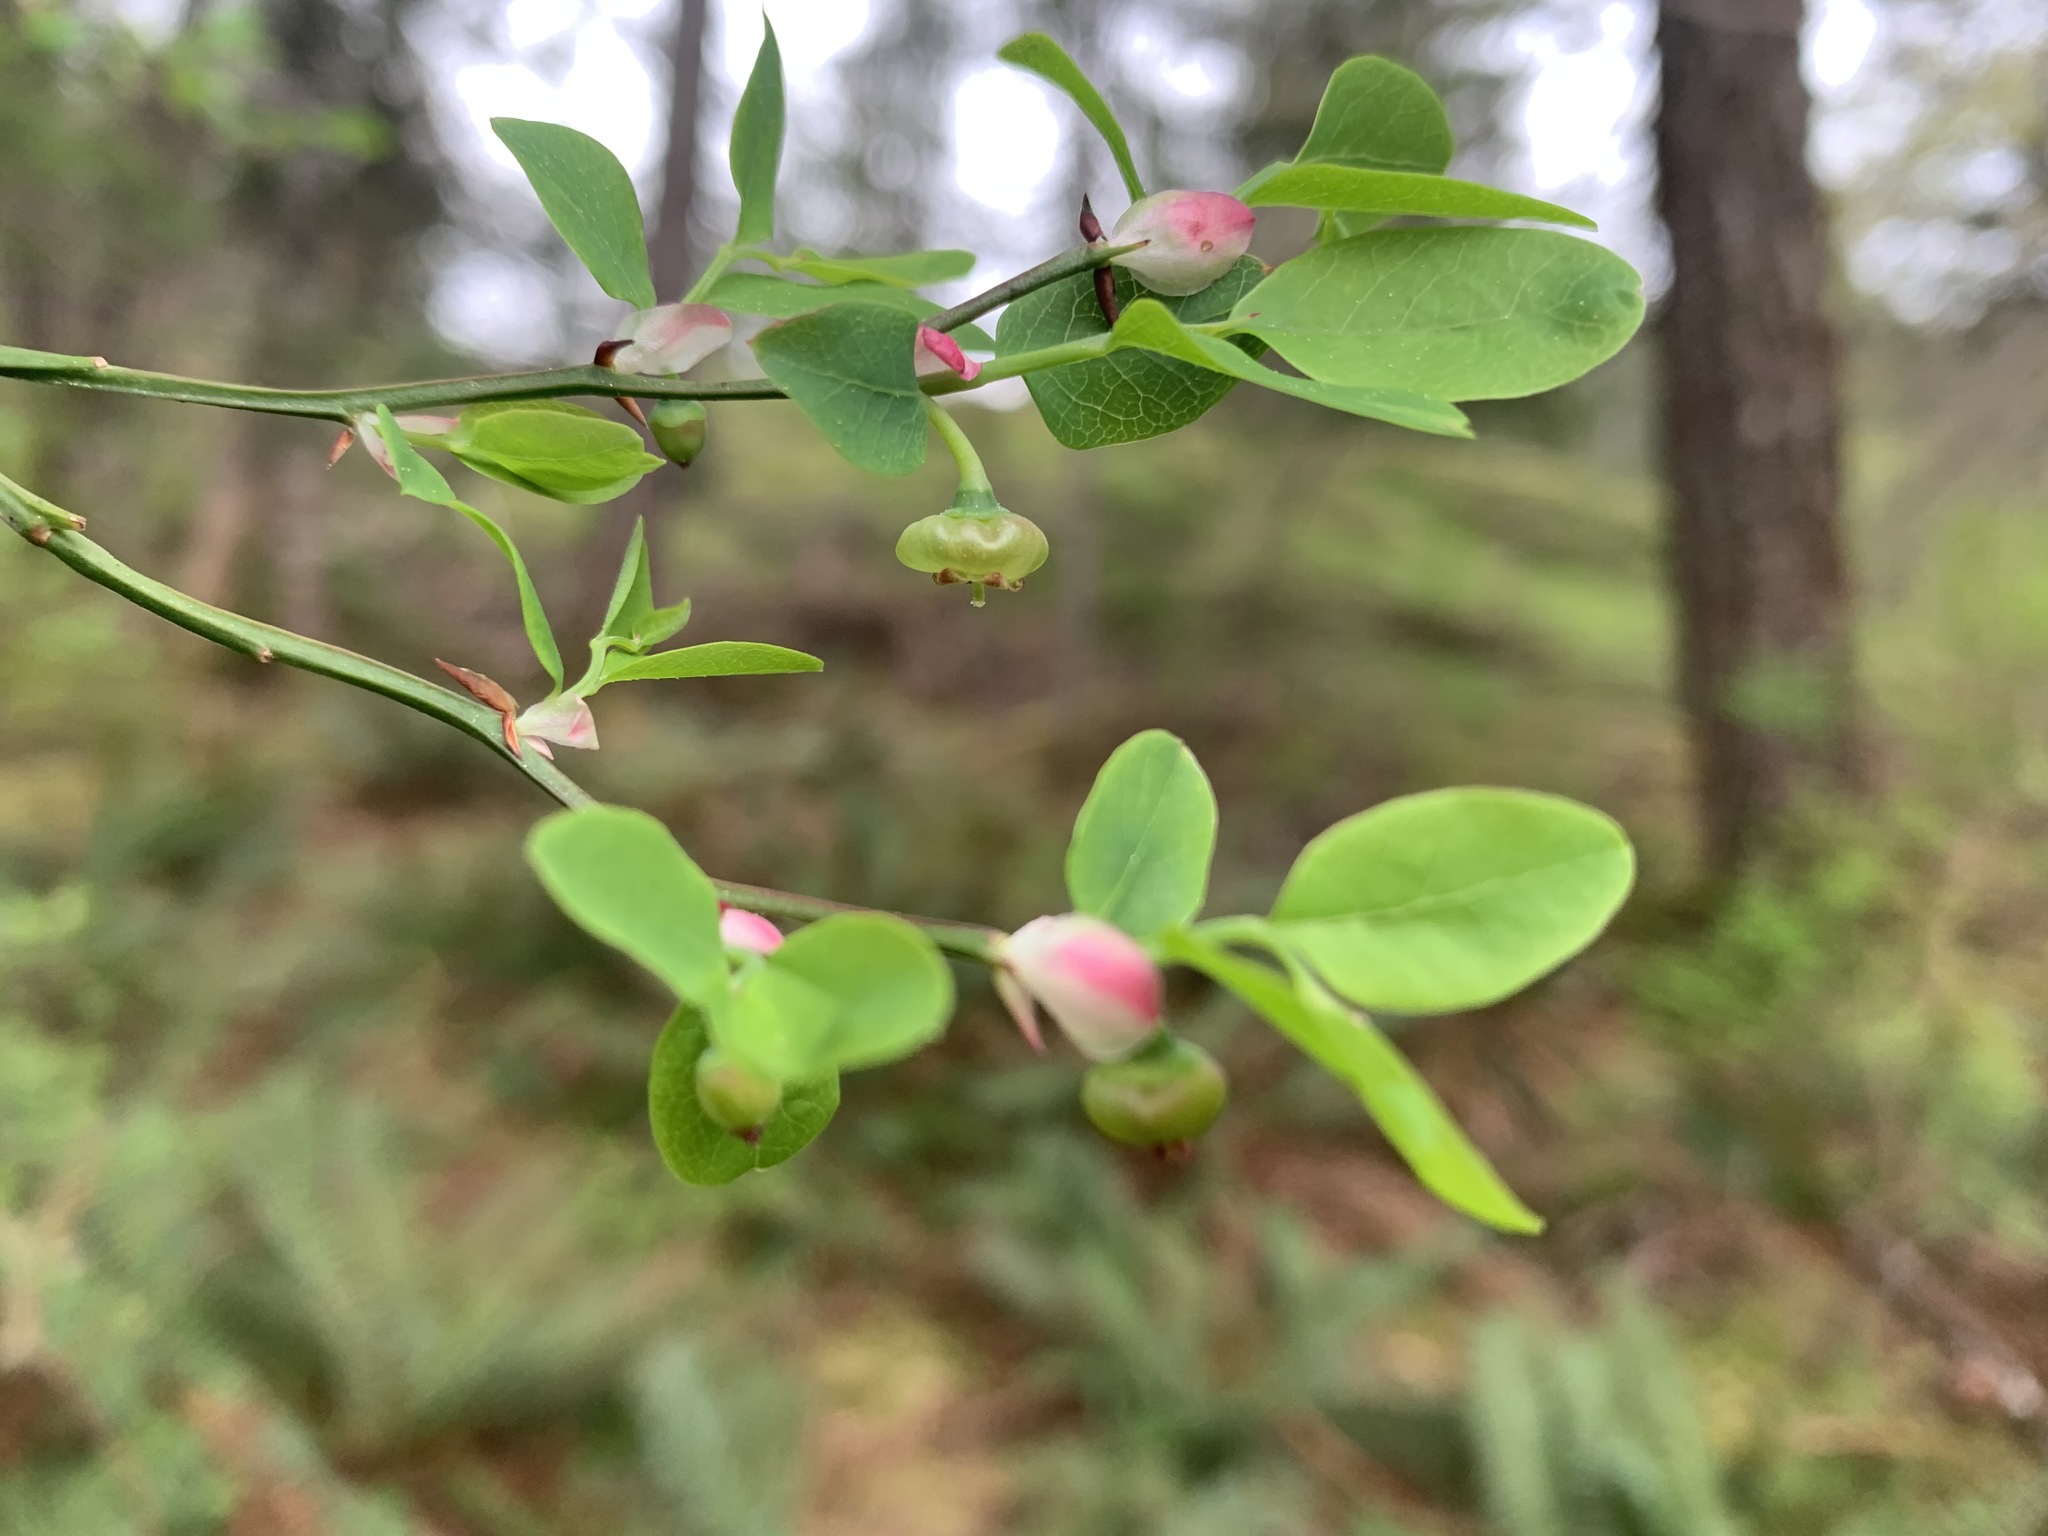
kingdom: Plantae
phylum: Tracheophyta
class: Magnoliopsida
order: Ericales
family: Ericaceae
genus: Vaccinium
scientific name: Vaccinium parvifolium
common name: Red-huckleberry
